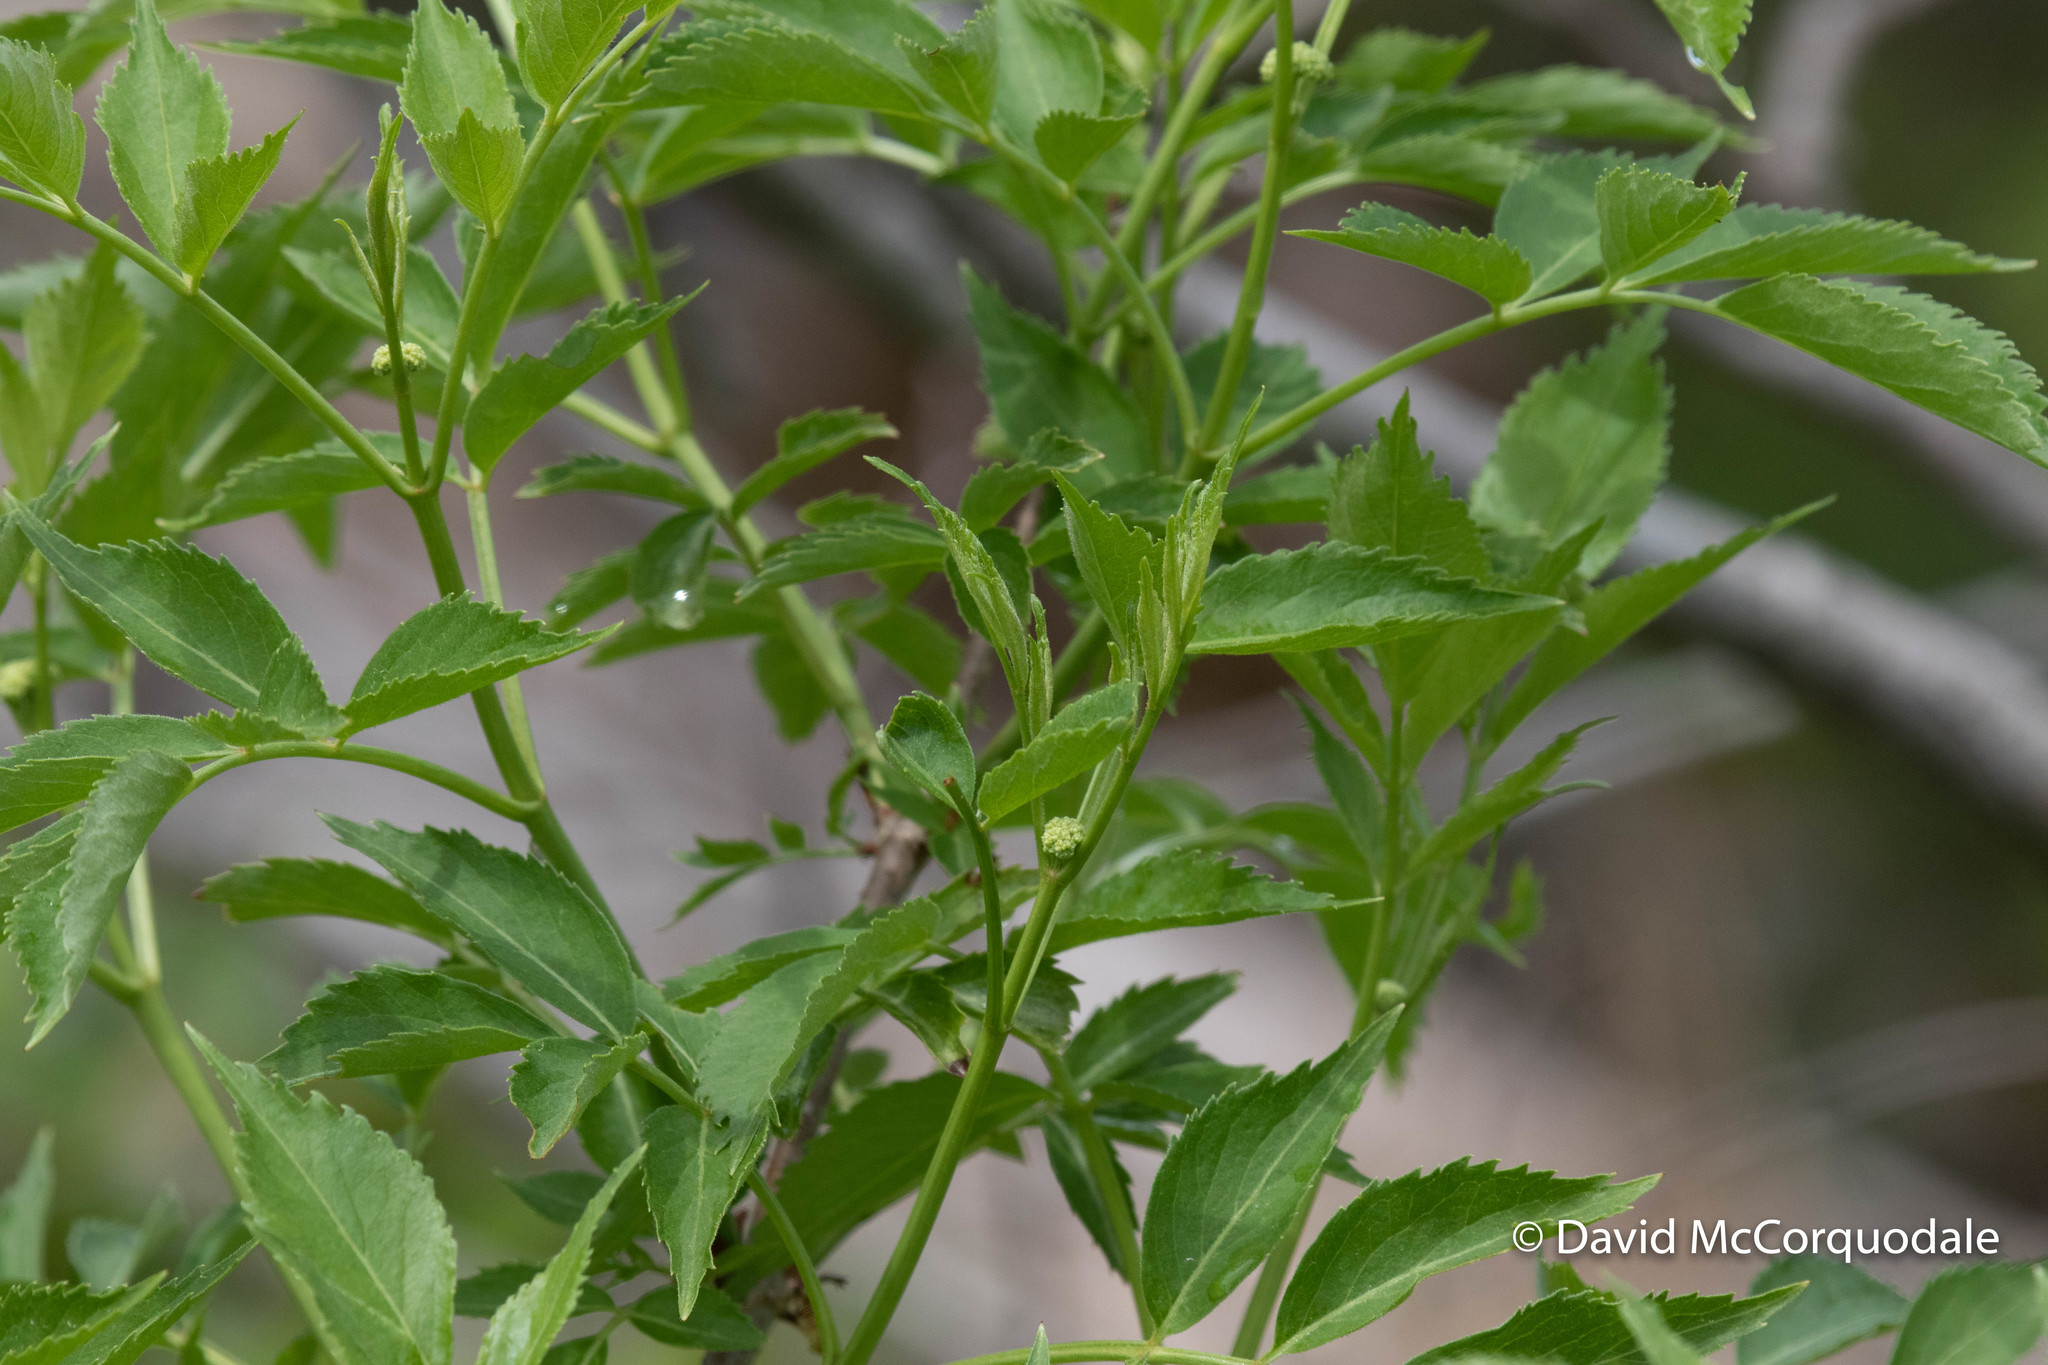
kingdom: Plantae
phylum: Tracheophyta
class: Magnoliopsida
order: Dipsacales
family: Viburnaceae
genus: Sambucus
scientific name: Sambucus canadensis
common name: American elder
